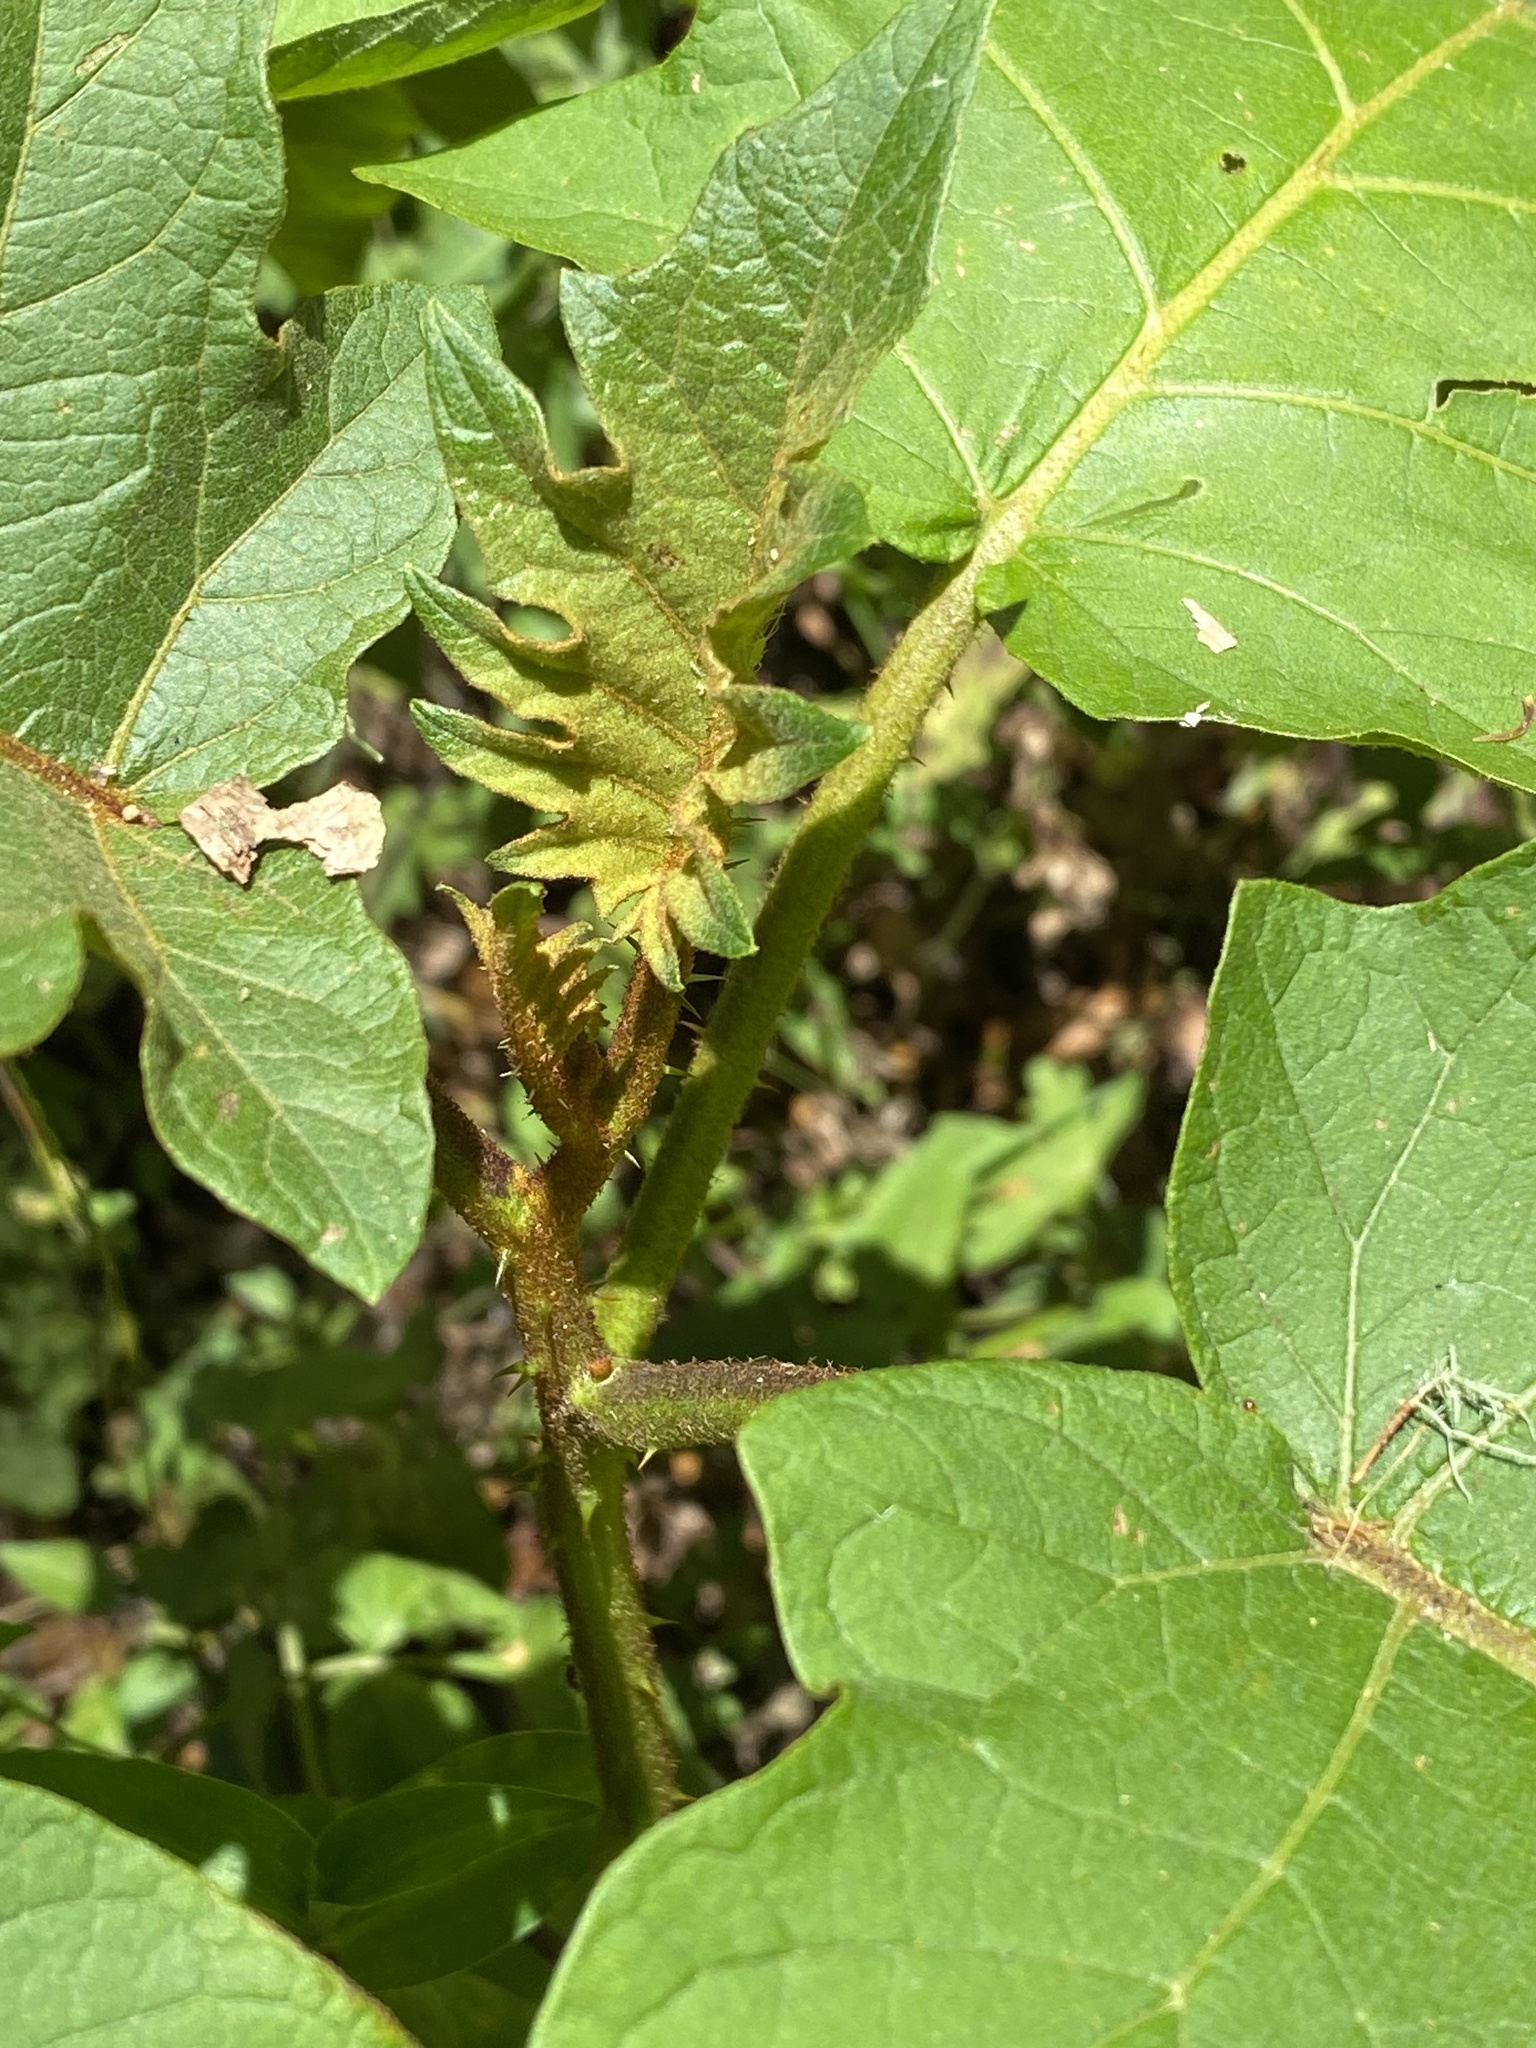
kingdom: Plantae
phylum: Tracheophyta
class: Magnoliopsida
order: Solanales
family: Solanaceae
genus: Solanum
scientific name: Solanum chrysotrichum
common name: Nightshade
